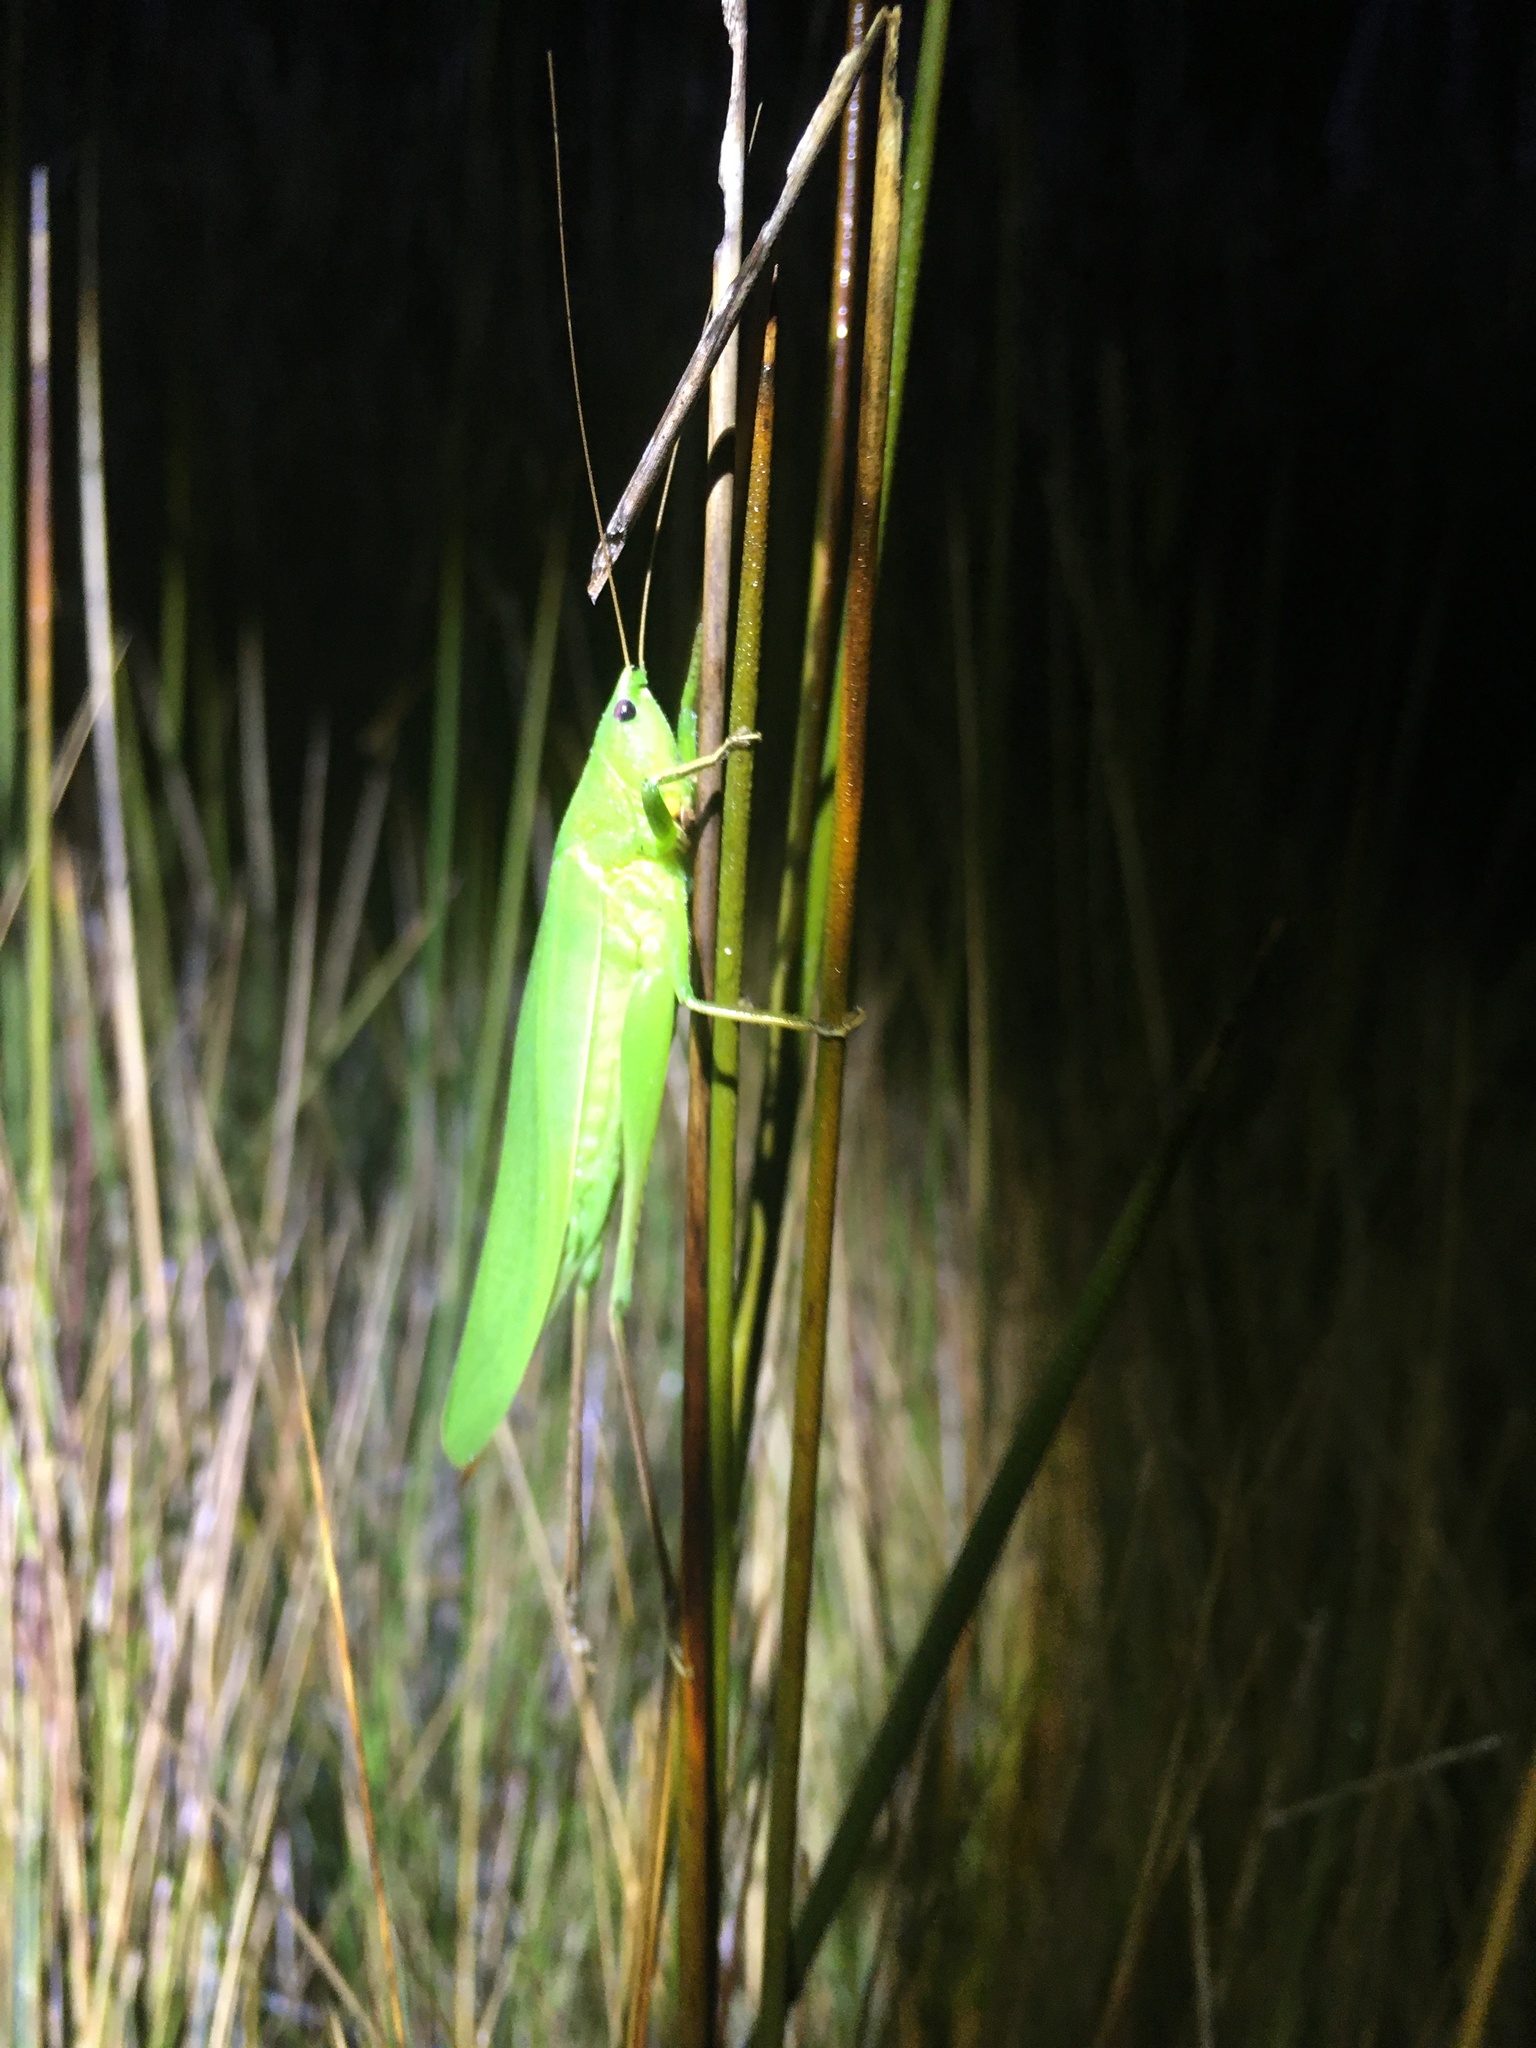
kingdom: Animalia
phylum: Arthropoda
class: Insecta
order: Orthoptera
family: Tettigoniidae
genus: Neoconocephalus
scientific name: Neoconocephalus triops
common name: Broad-tipped conehead
